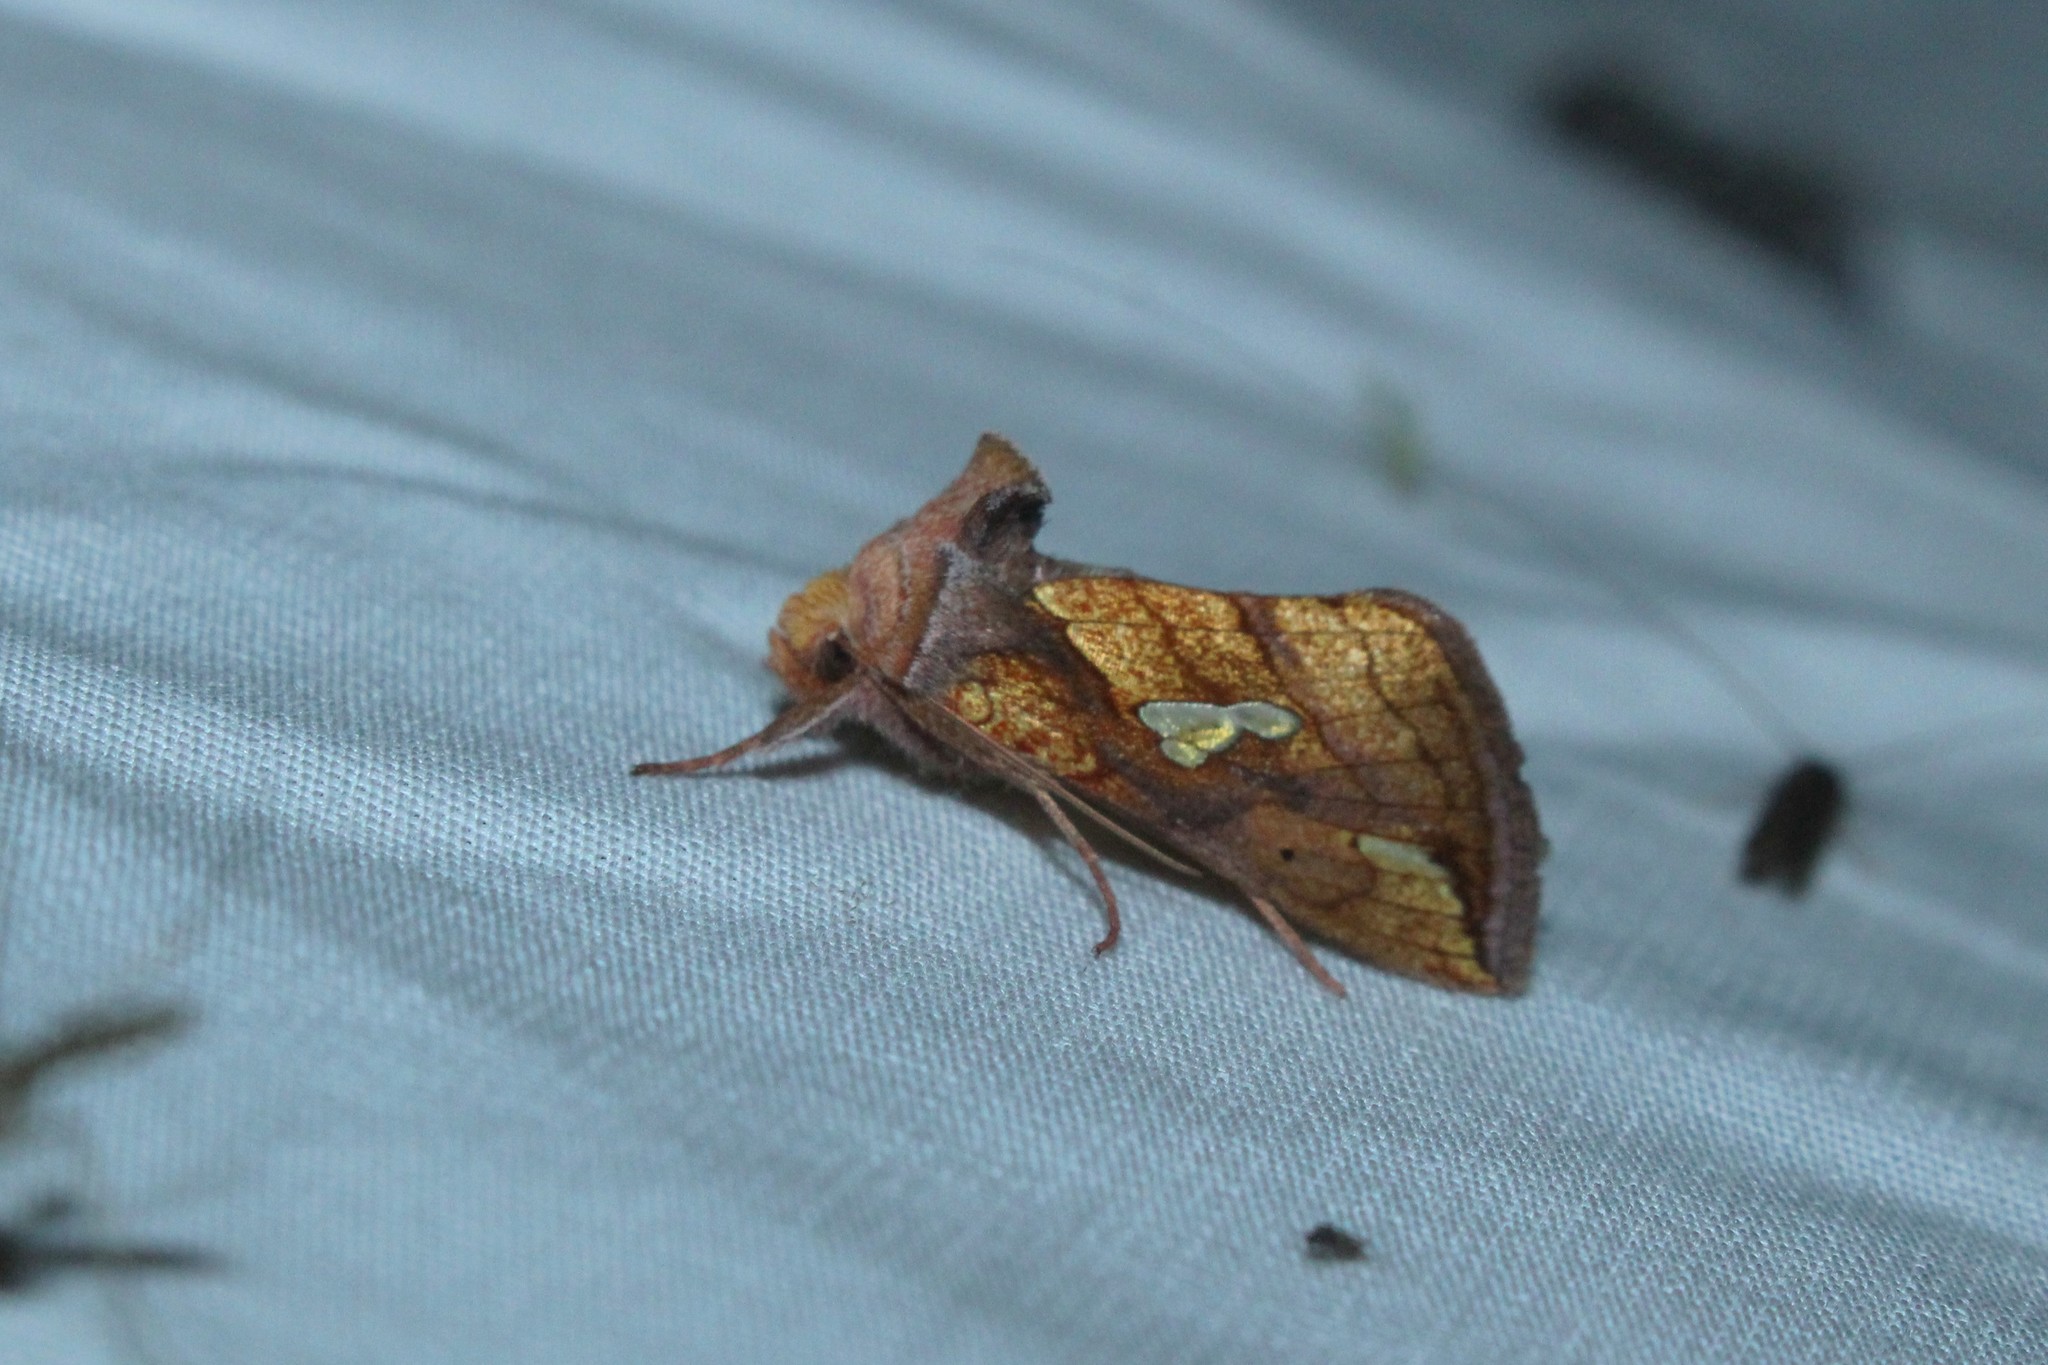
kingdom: Animalia
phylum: Arthropoda
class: Insecta
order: Lepidoptera
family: Noctuidae
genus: Plusia
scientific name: Plusia putnami
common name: Lempke's gold spot
